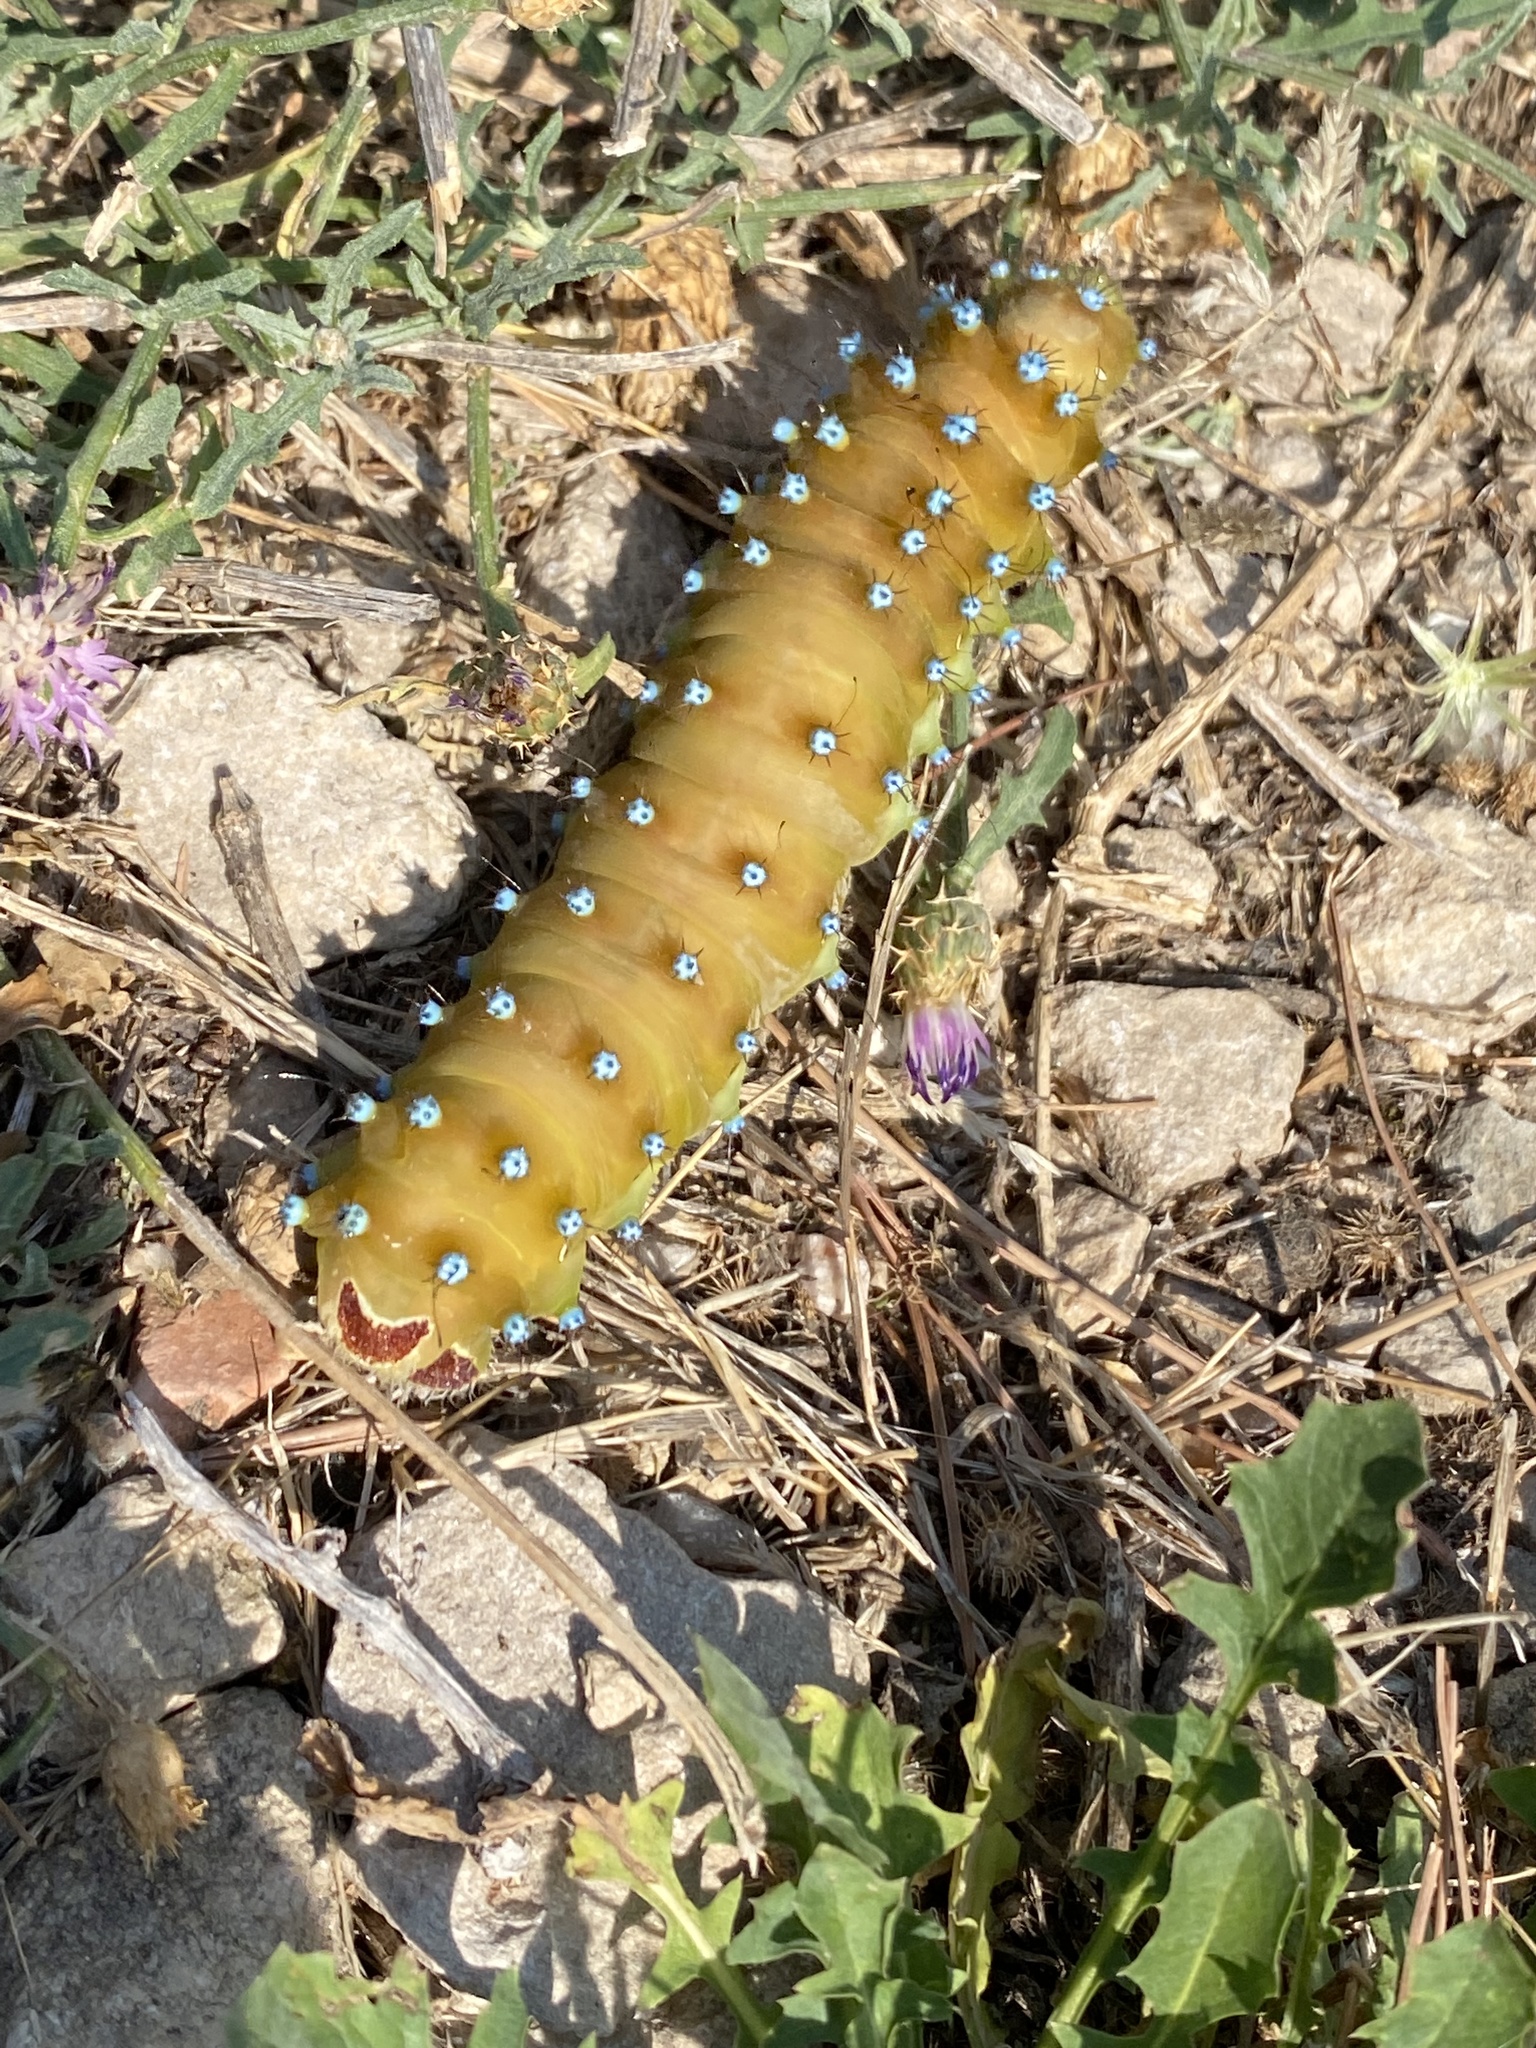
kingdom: Animalia
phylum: Arthropoda
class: Insecta
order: Lepidoptera
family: Saturniidae
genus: Saturnia
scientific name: Saturnia pyri
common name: Great peacock moth
